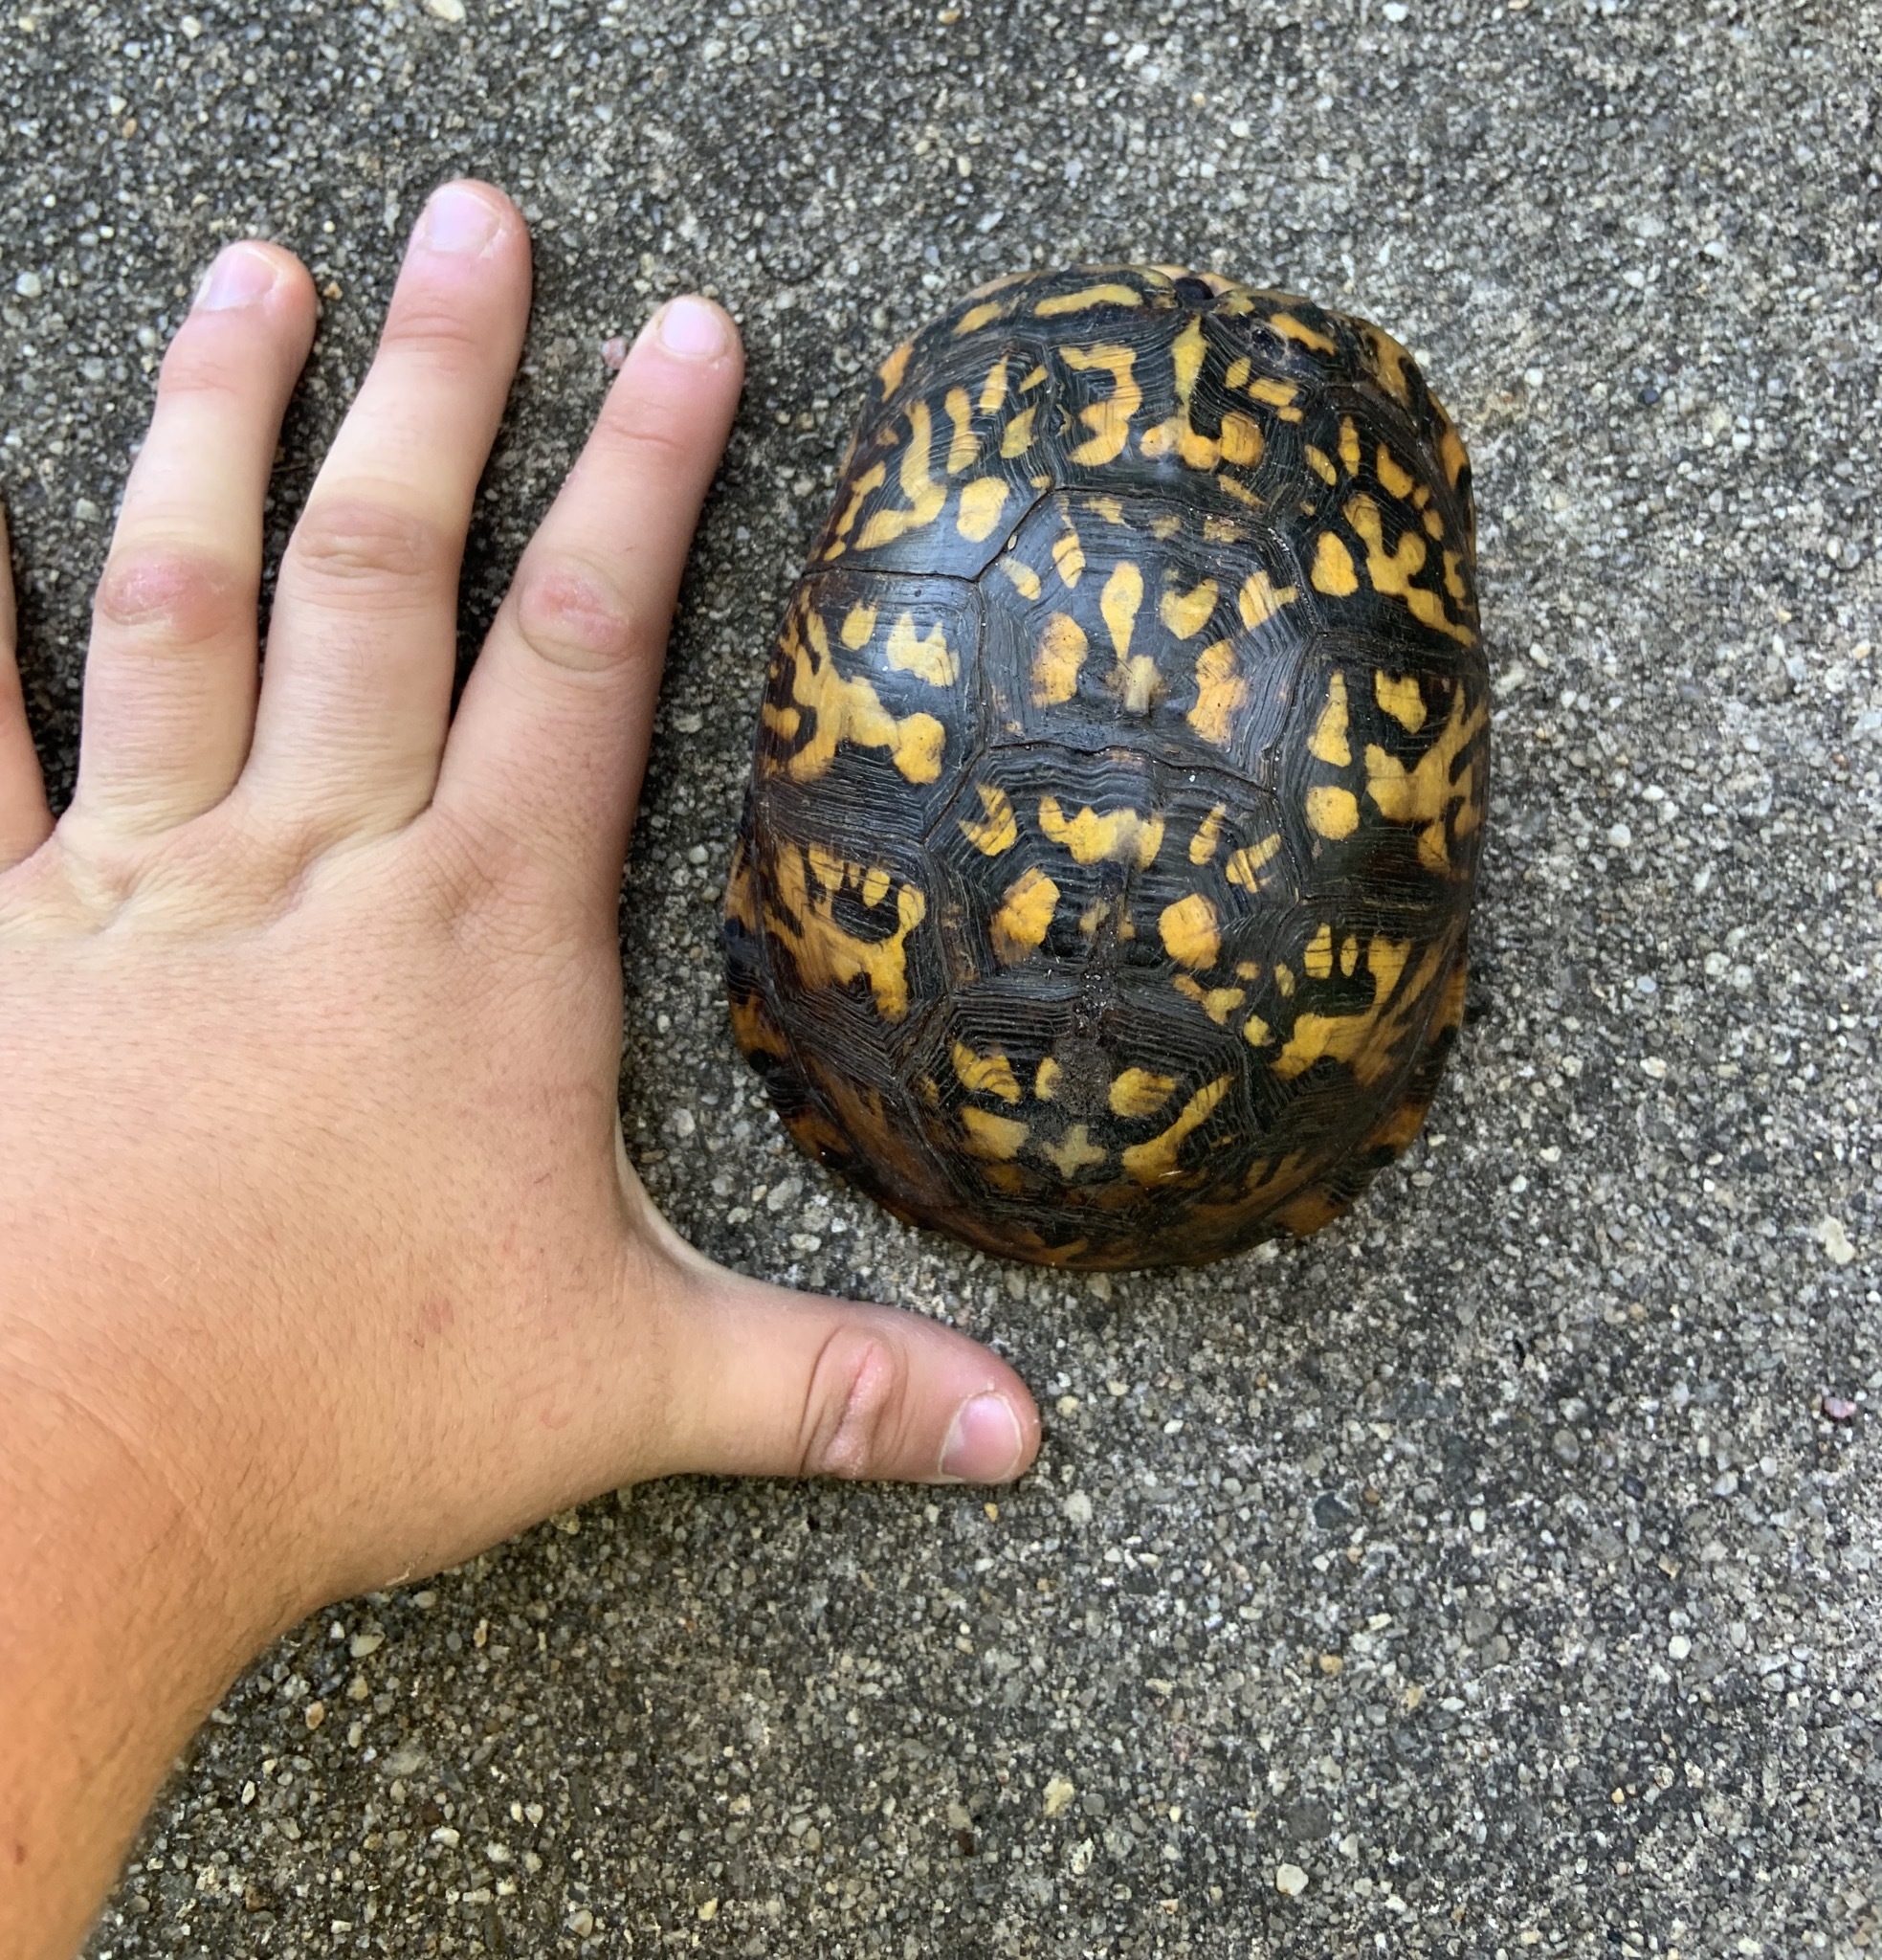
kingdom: Animalia
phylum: Chordata
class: Testudines
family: Emydidae
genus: Terrapene
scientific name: Terrapene carolina
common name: Common box turtle
